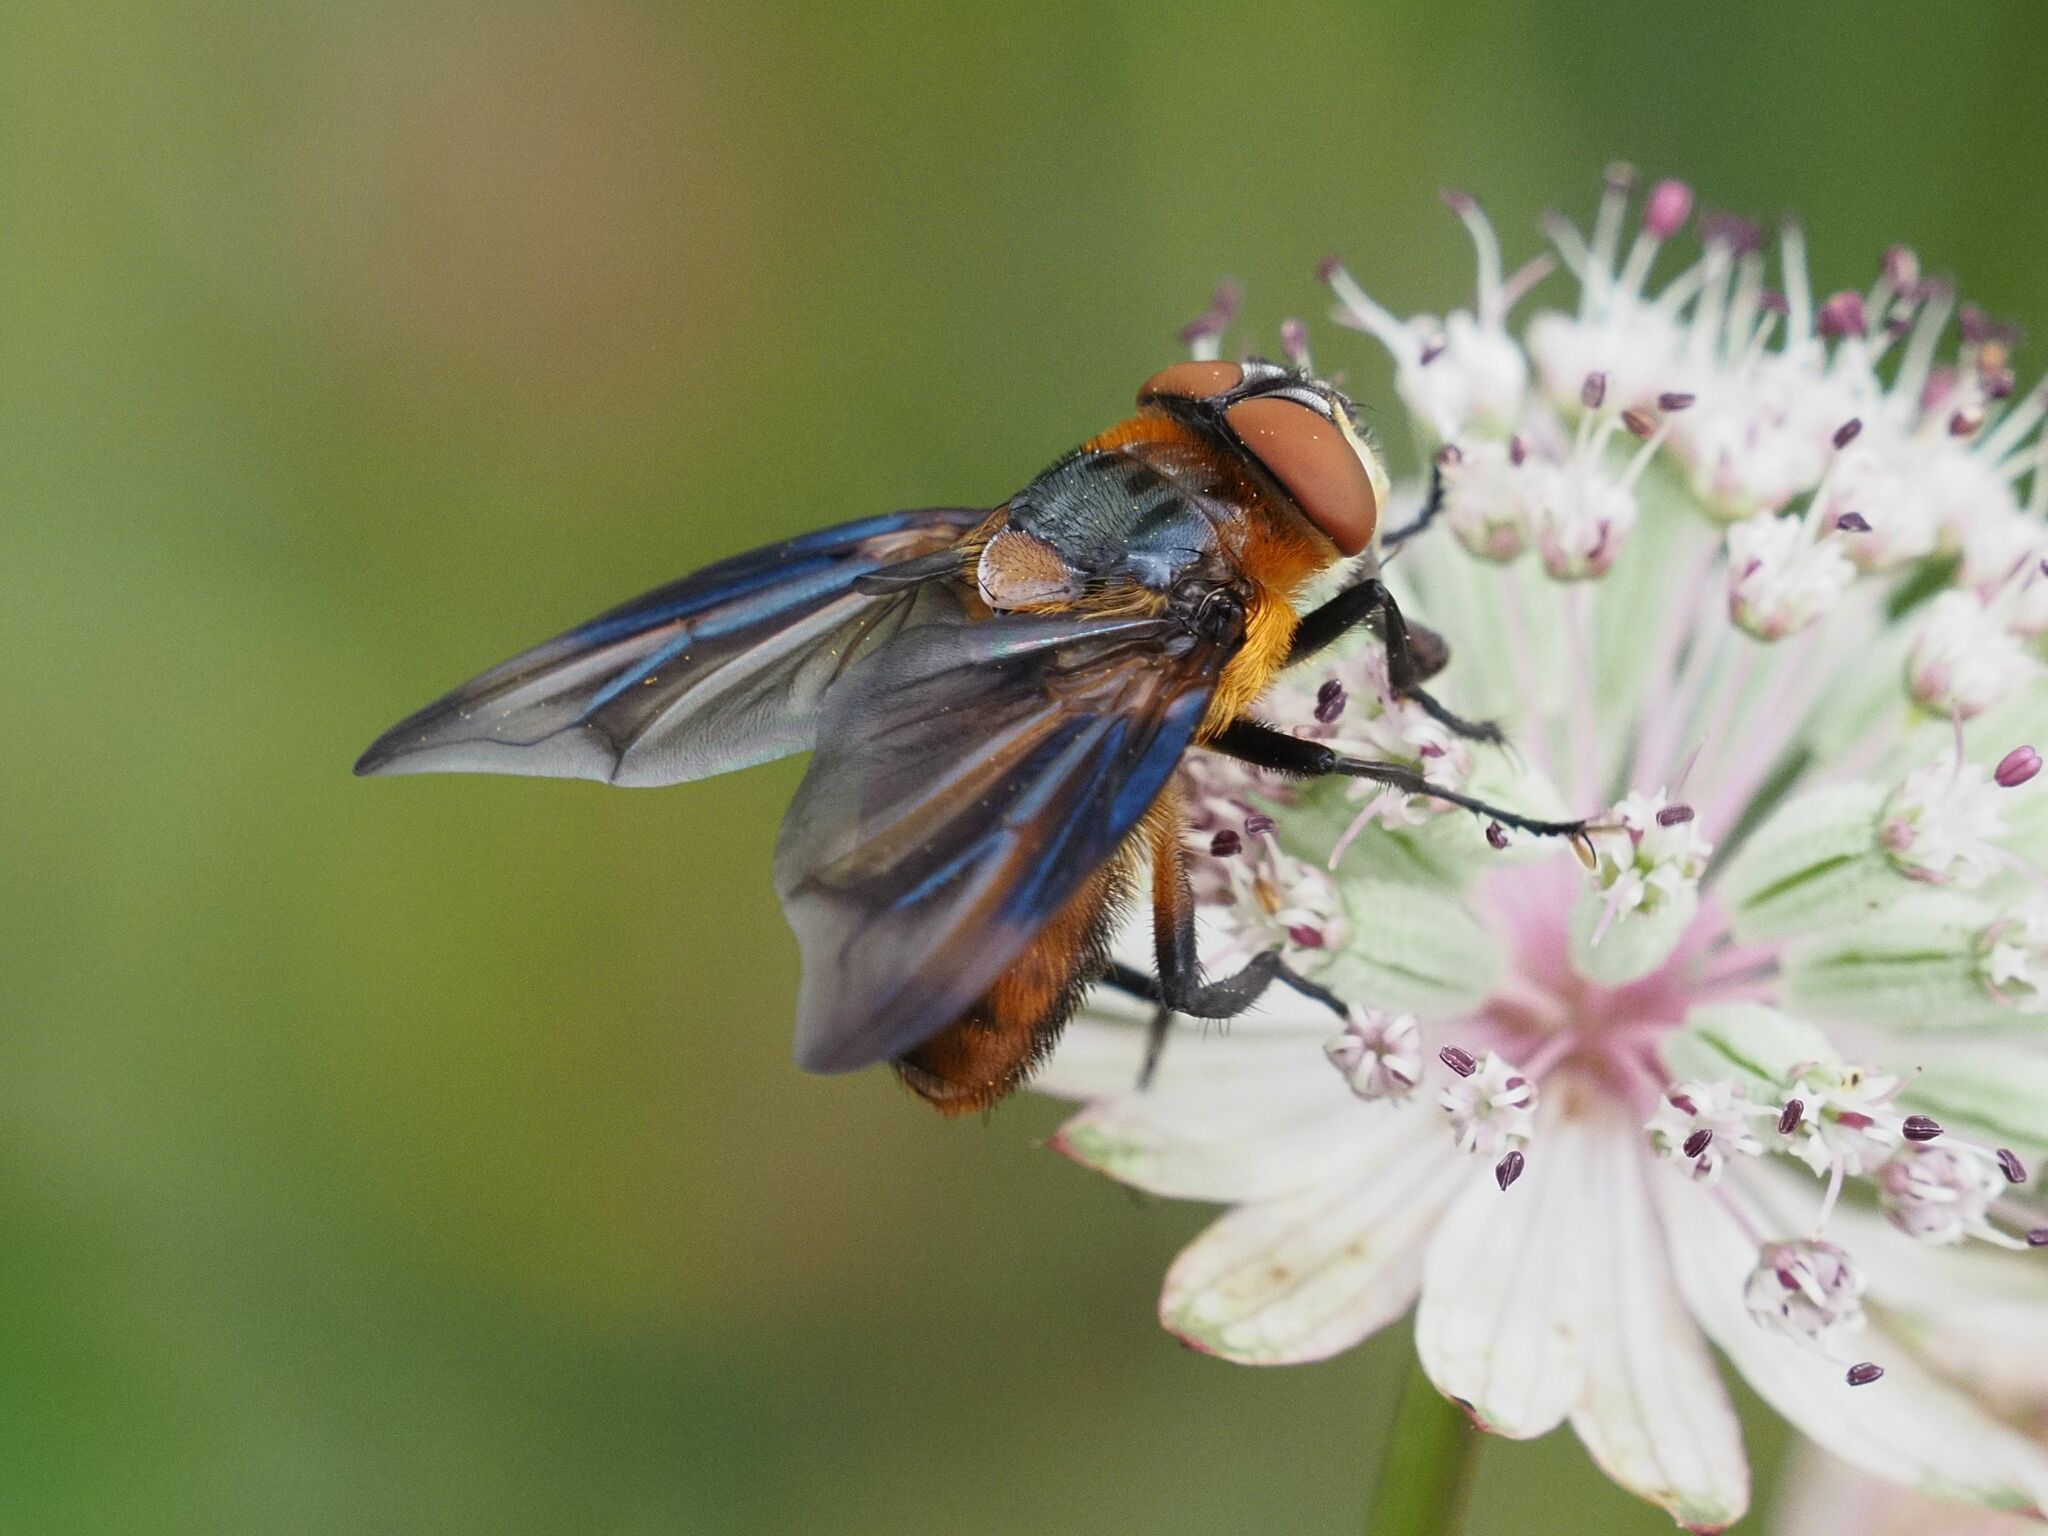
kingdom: Animalia
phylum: Arthropoda
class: Insecta
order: Diptera
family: Tachinidae
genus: Phasia
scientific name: Phasia hemiptera
